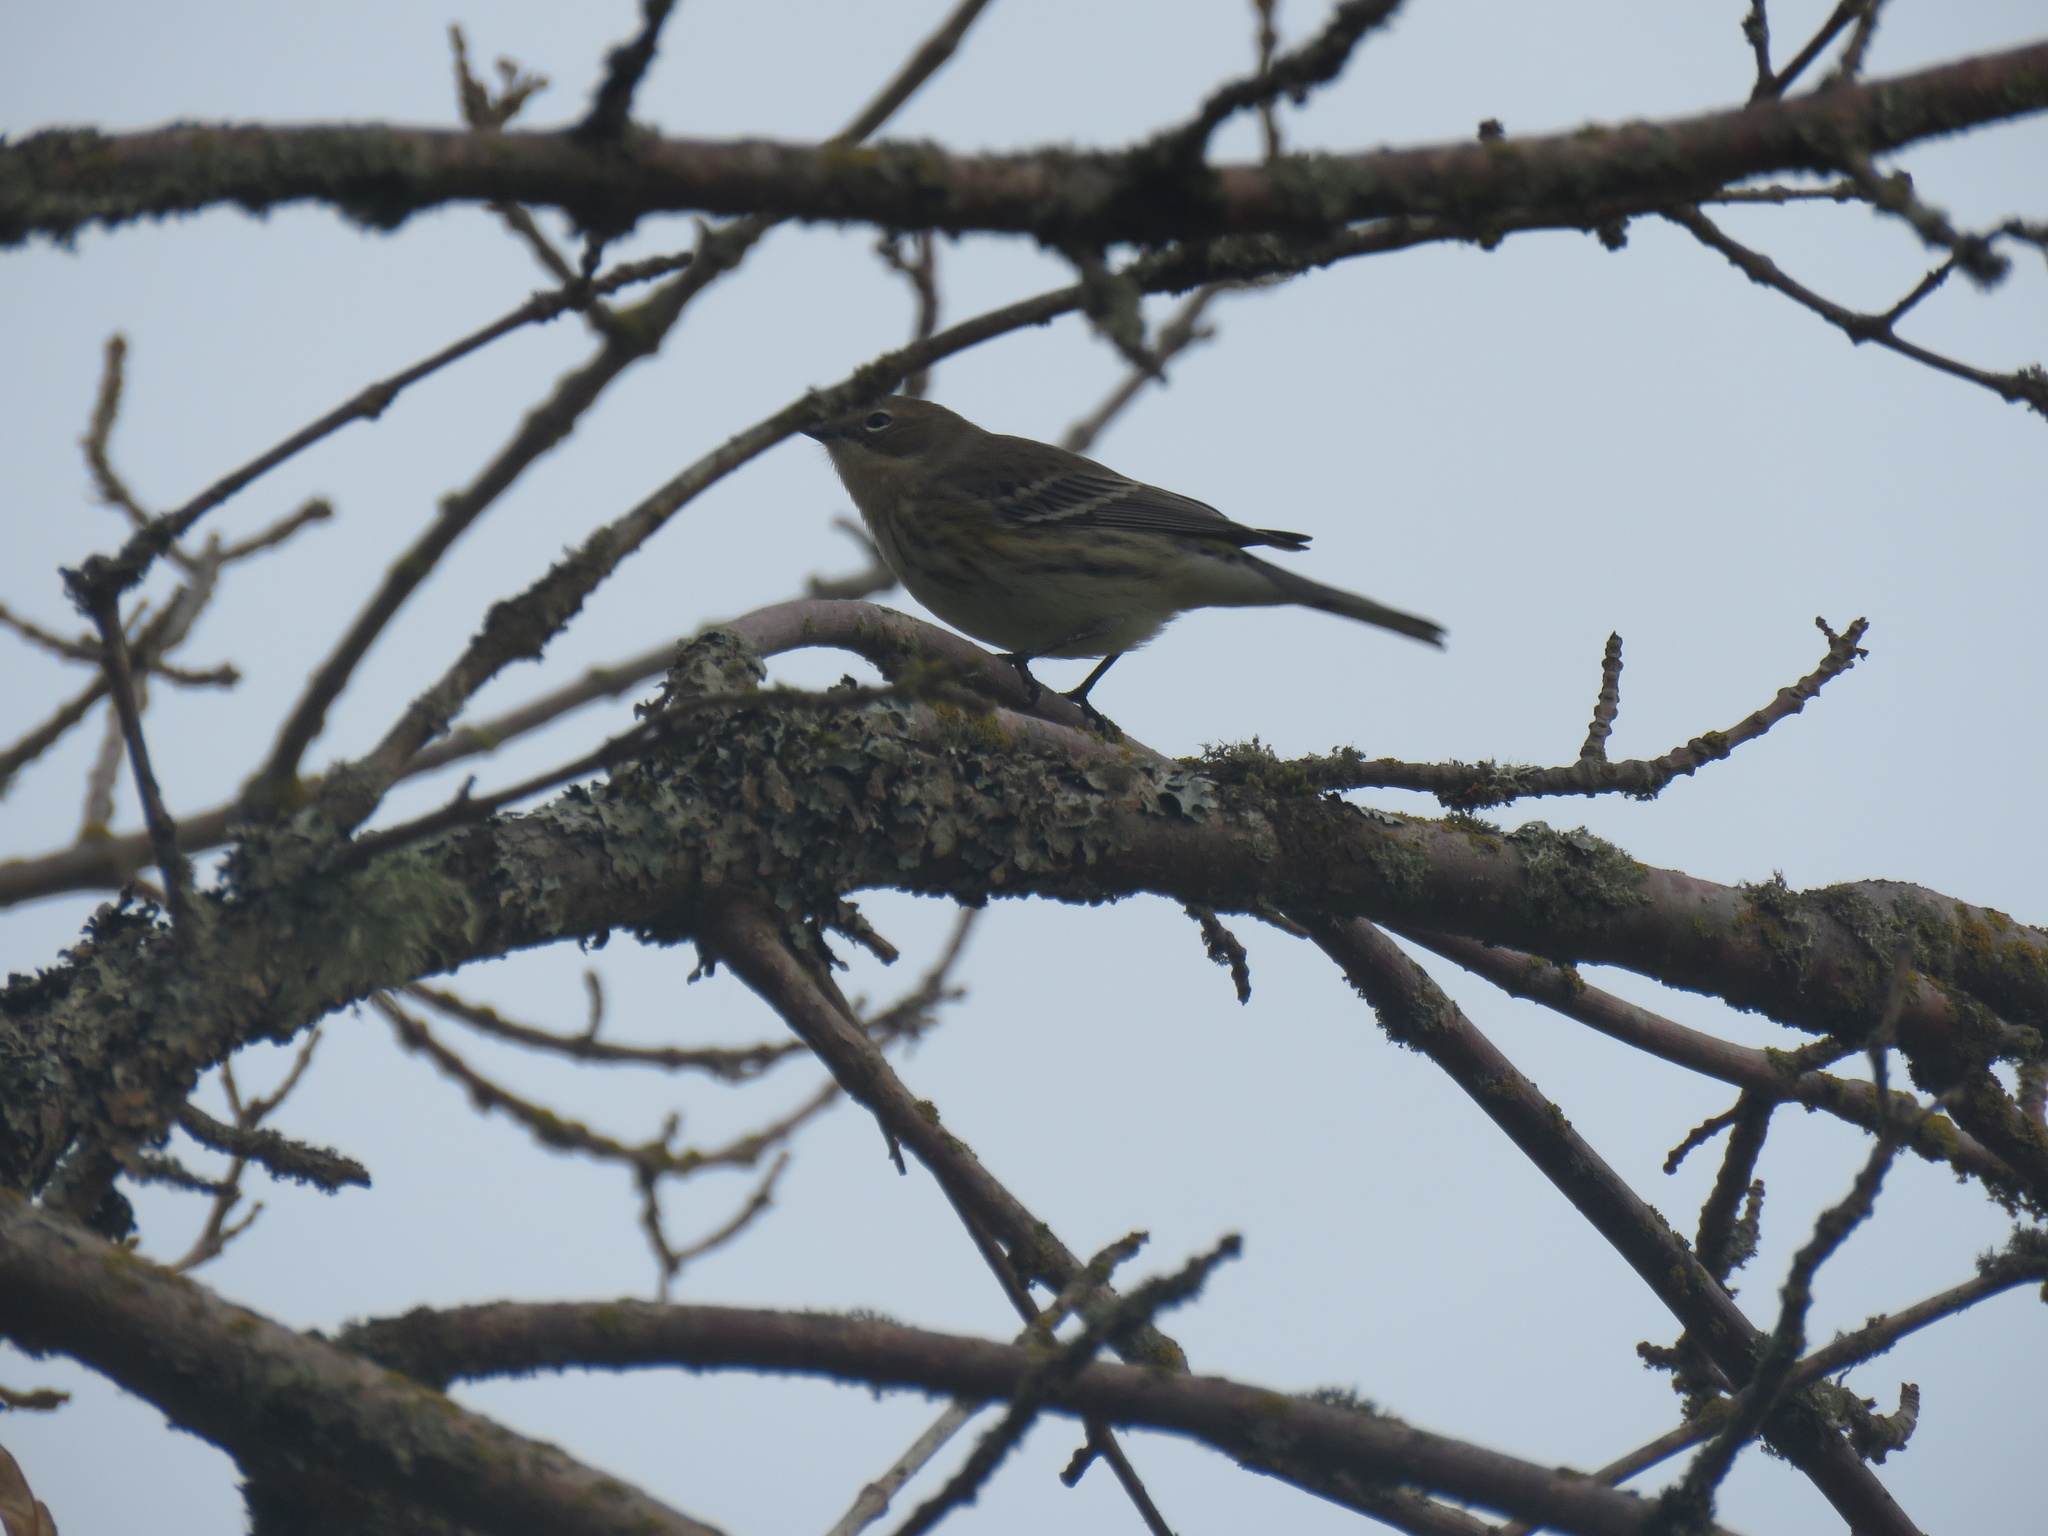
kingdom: Animalia
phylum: Chordata
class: Aves
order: Passeriformes
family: Parulidae
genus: Setophaga
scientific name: Setophaga coronata
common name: Myrtle warbler
